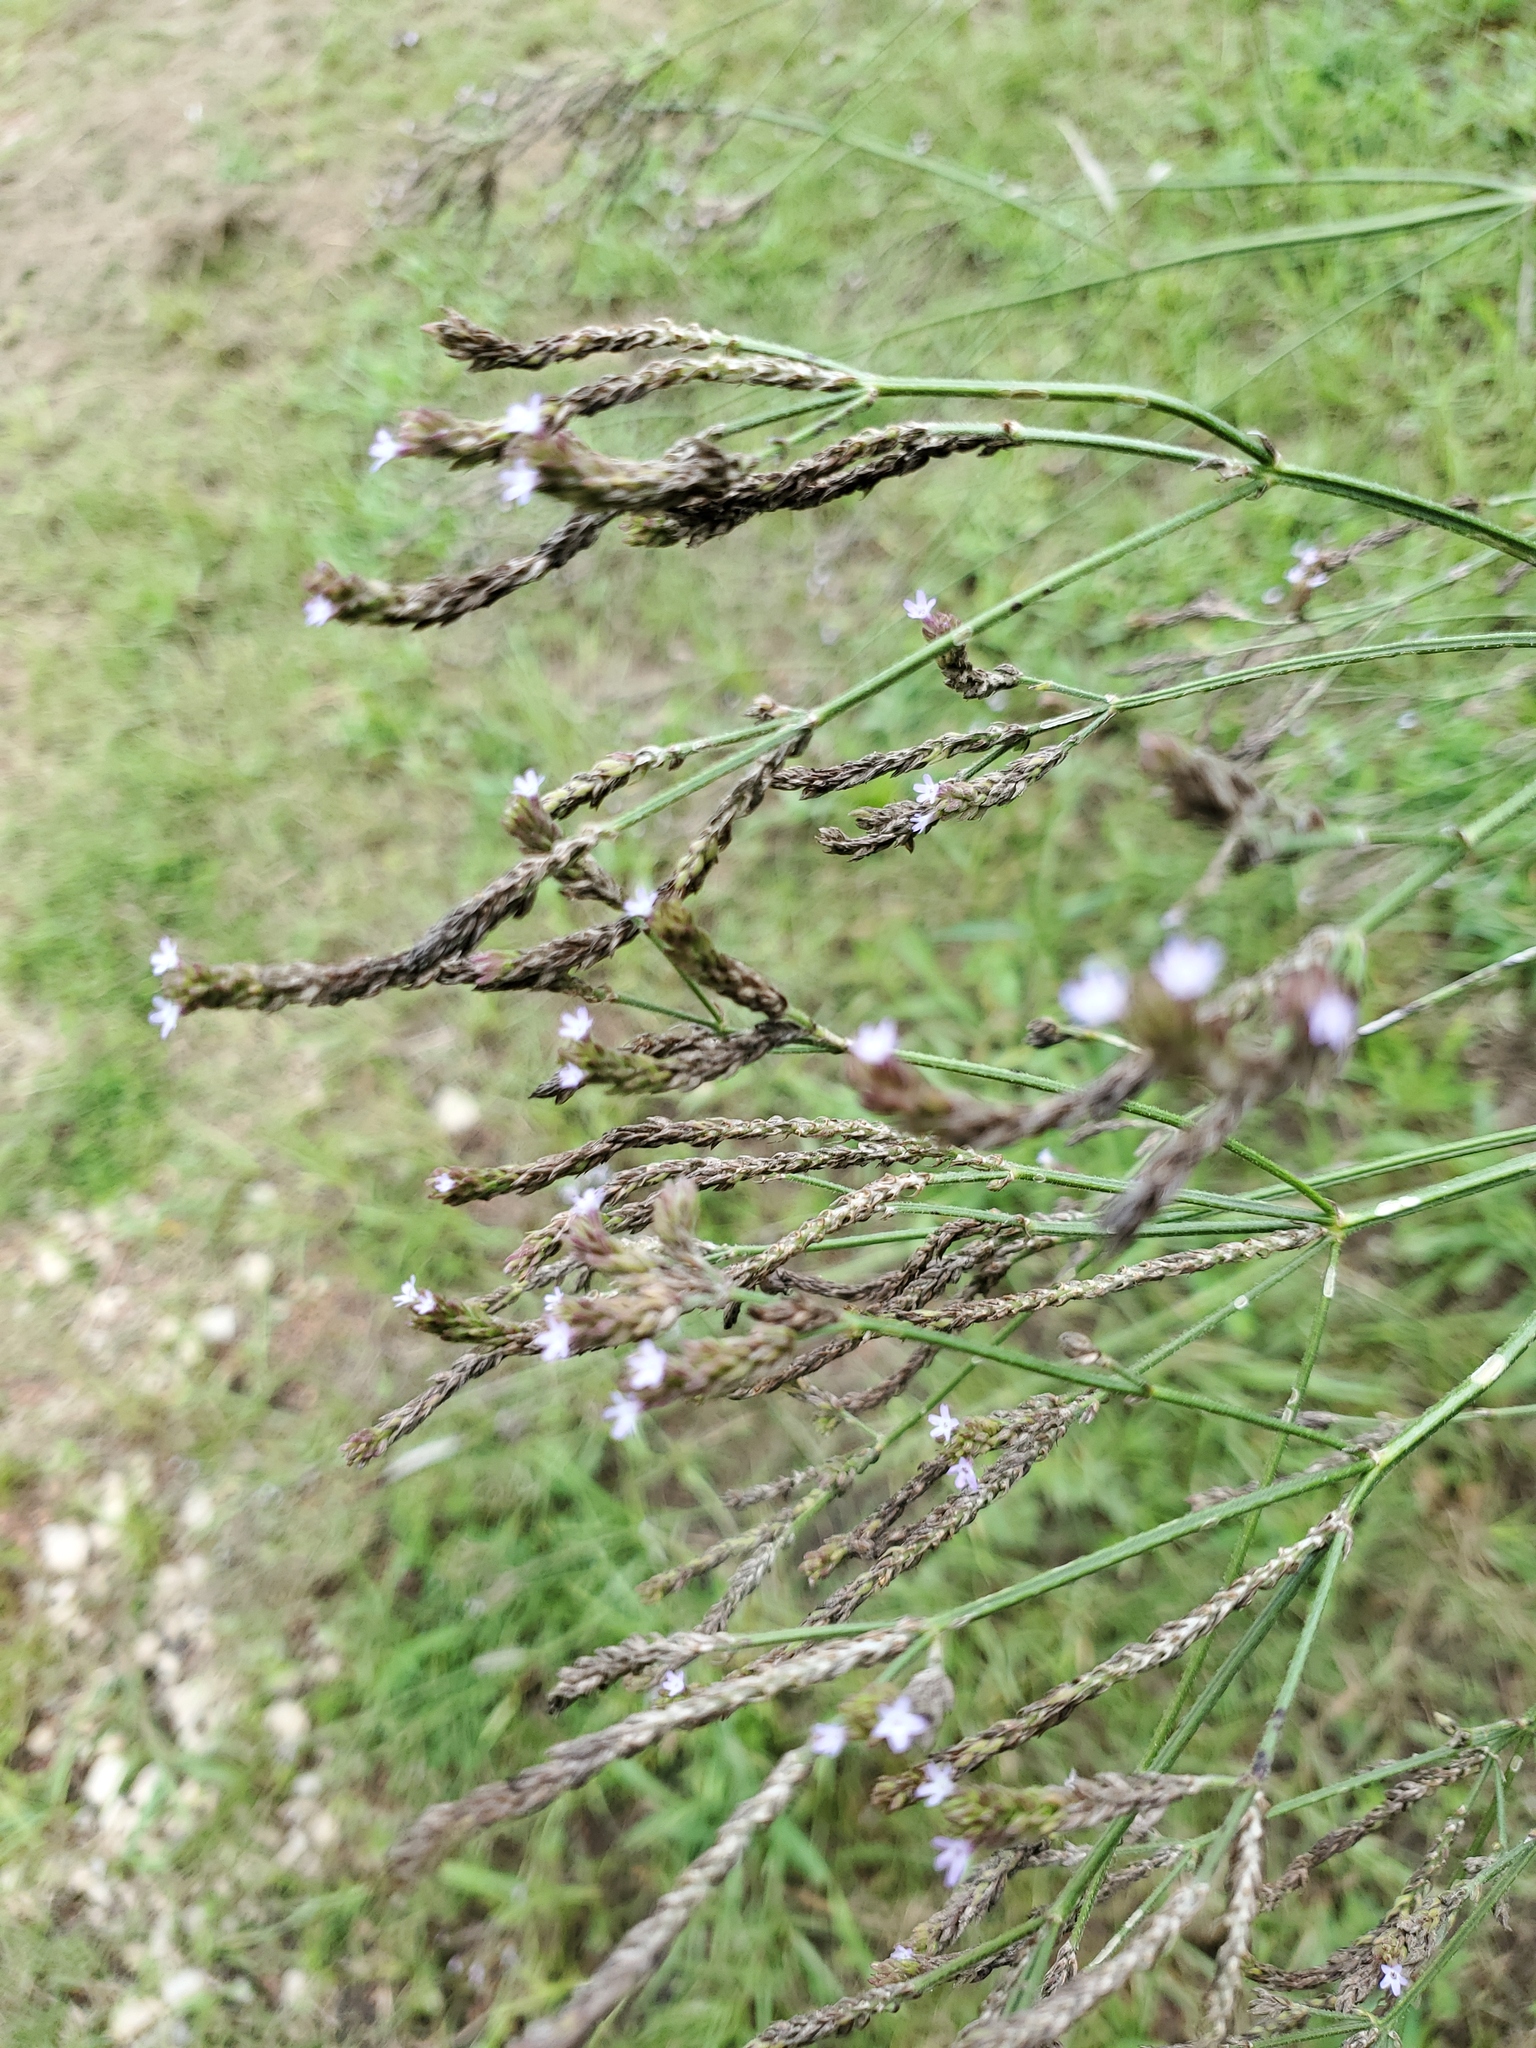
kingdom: Plantae
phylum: Tracheophyta
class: Magnoliopsida
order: Lamiales
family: Verbenaceae
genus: Verbena
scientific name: Verbena brasiliensis
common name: Brazilian vervain
